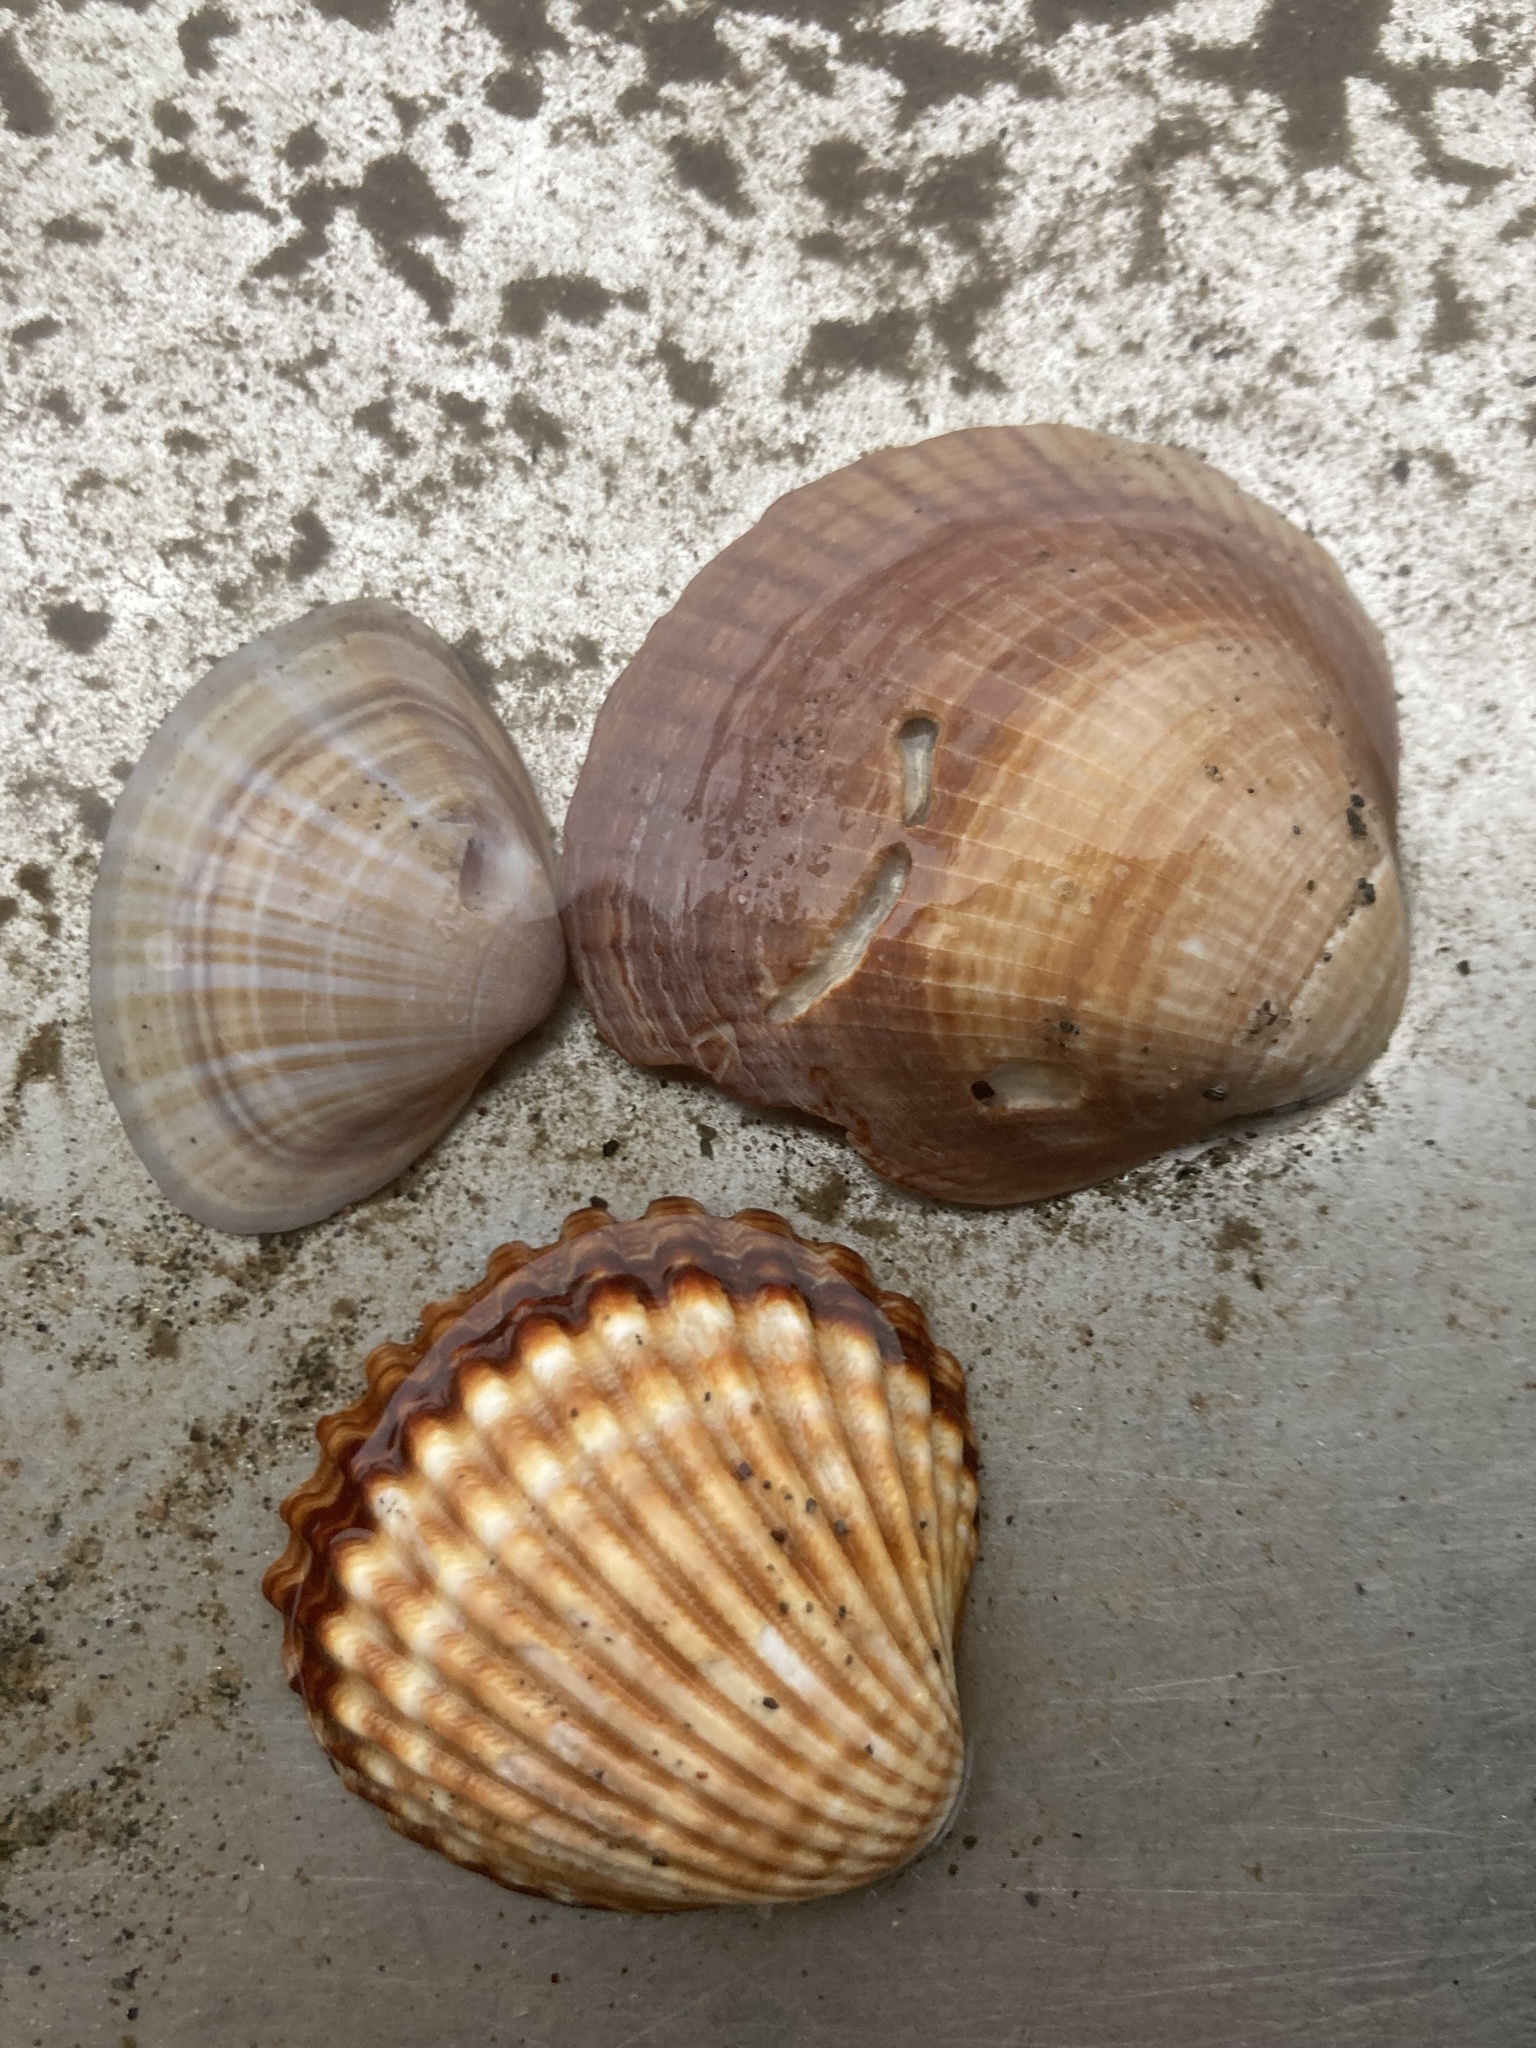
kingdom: Animalia
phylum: Mollusca
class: Bivalvia
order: Cardiida
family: Cardiidae
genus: Acanthocardia
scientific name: Acanthocardia tuberculata
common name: Rough cockle
